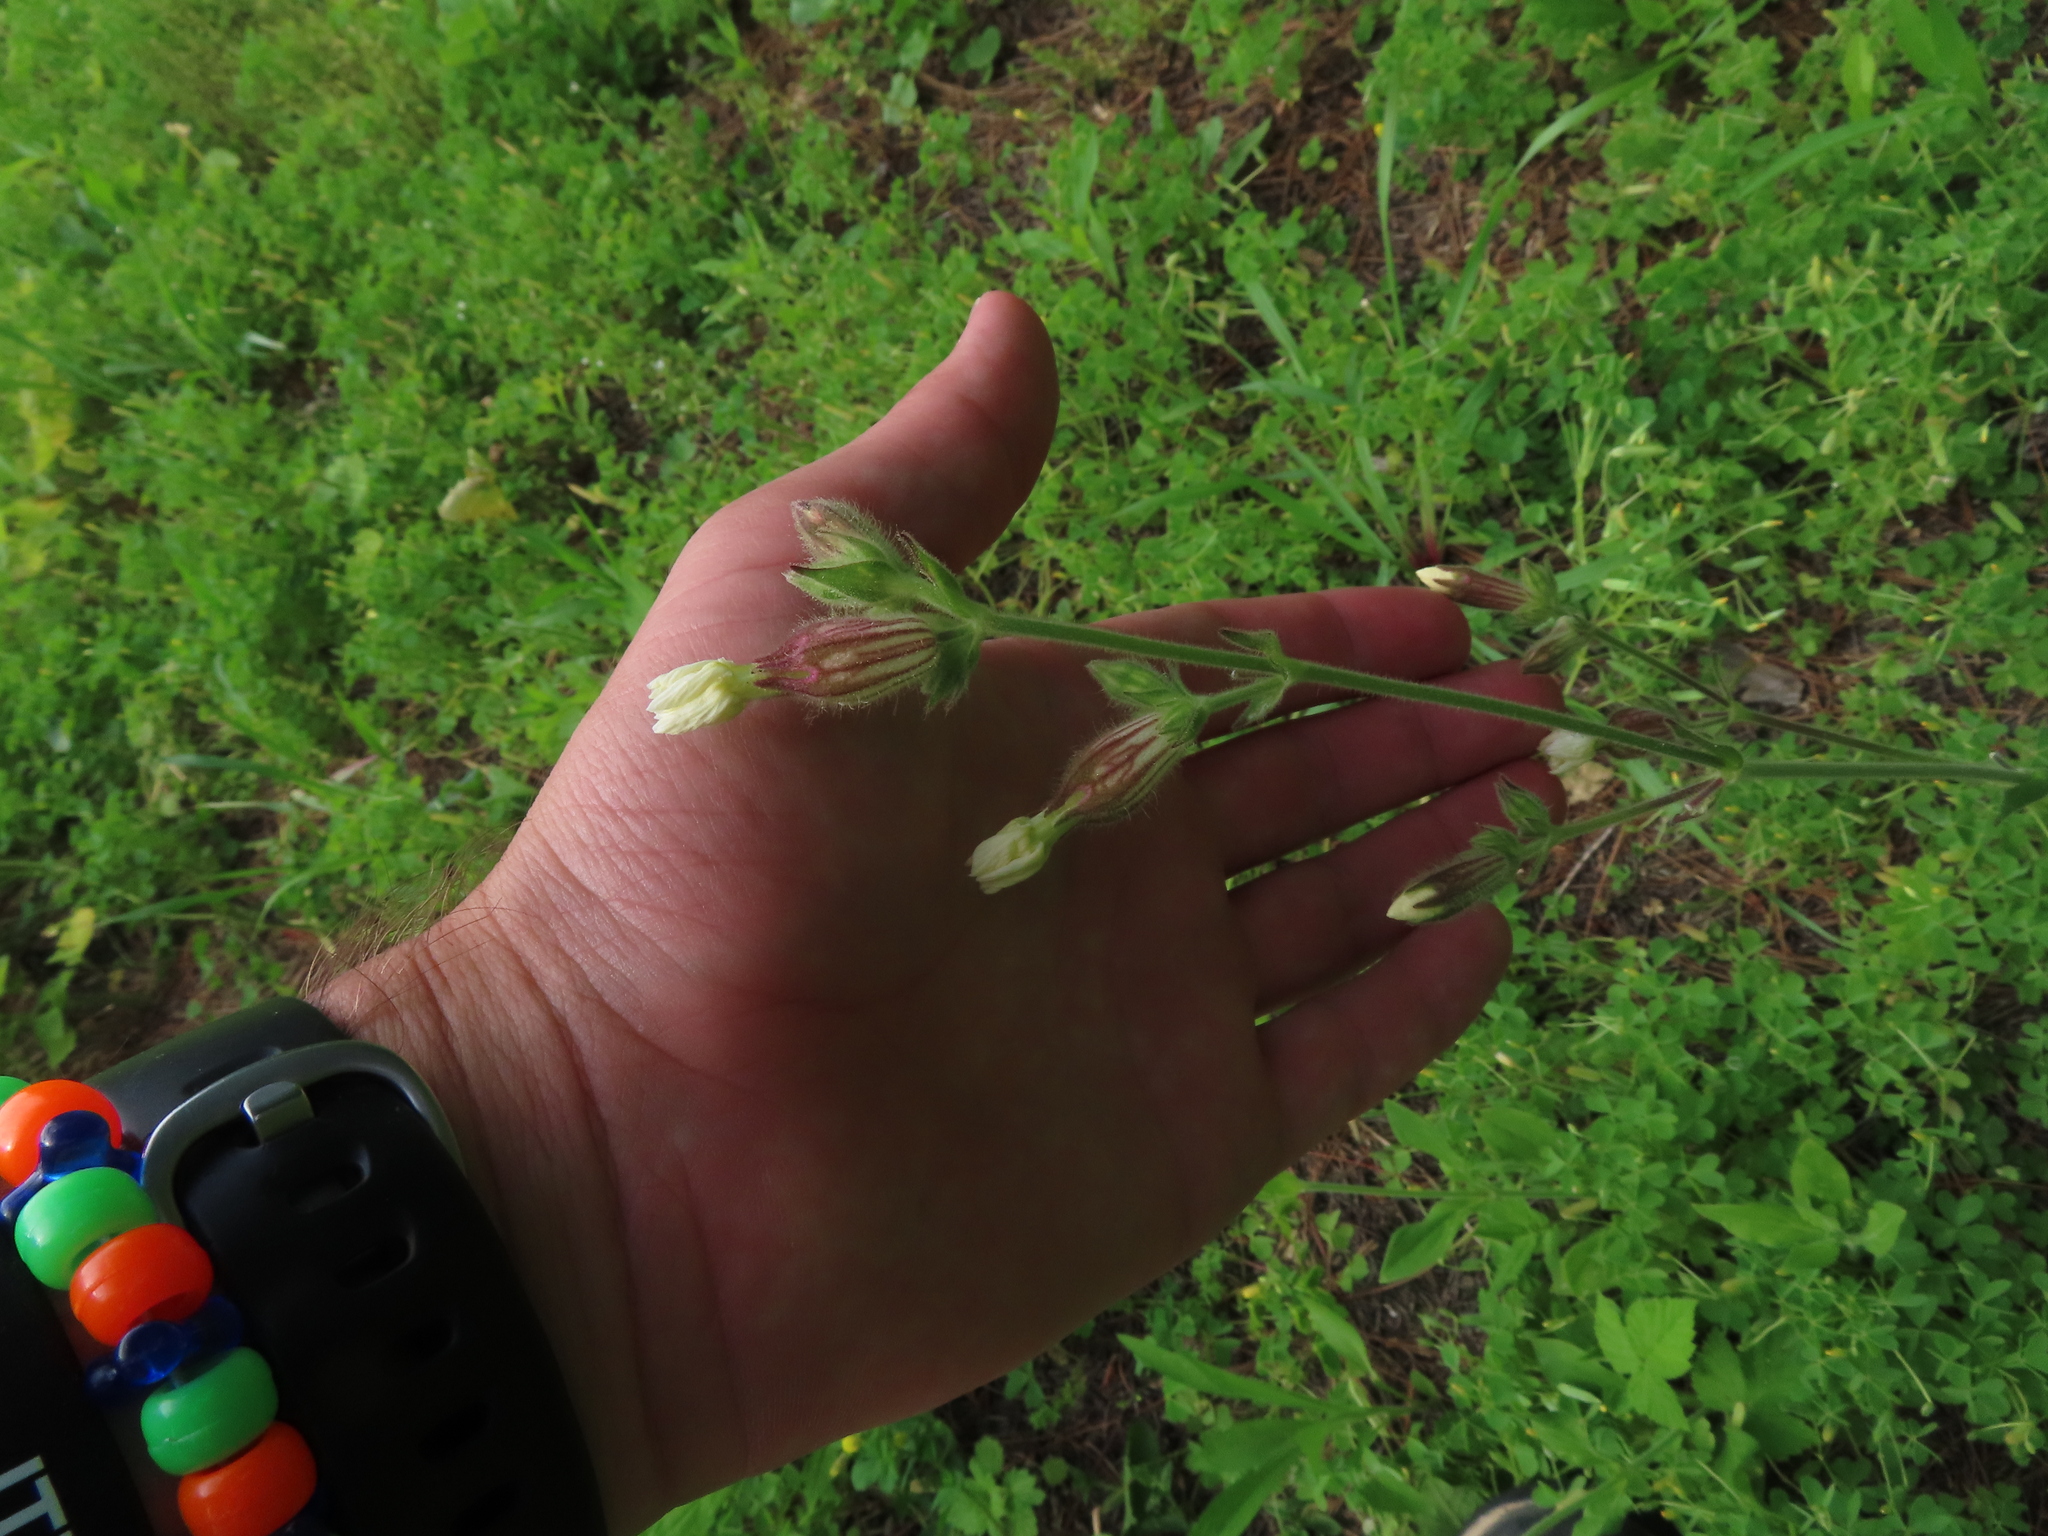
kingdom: Plantae
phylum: Tracheophyta
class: Magnoliopsida
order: Caryophyllales
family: Caryophyllaceae
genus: Silene
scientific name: Silene latifolia
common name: White campion
